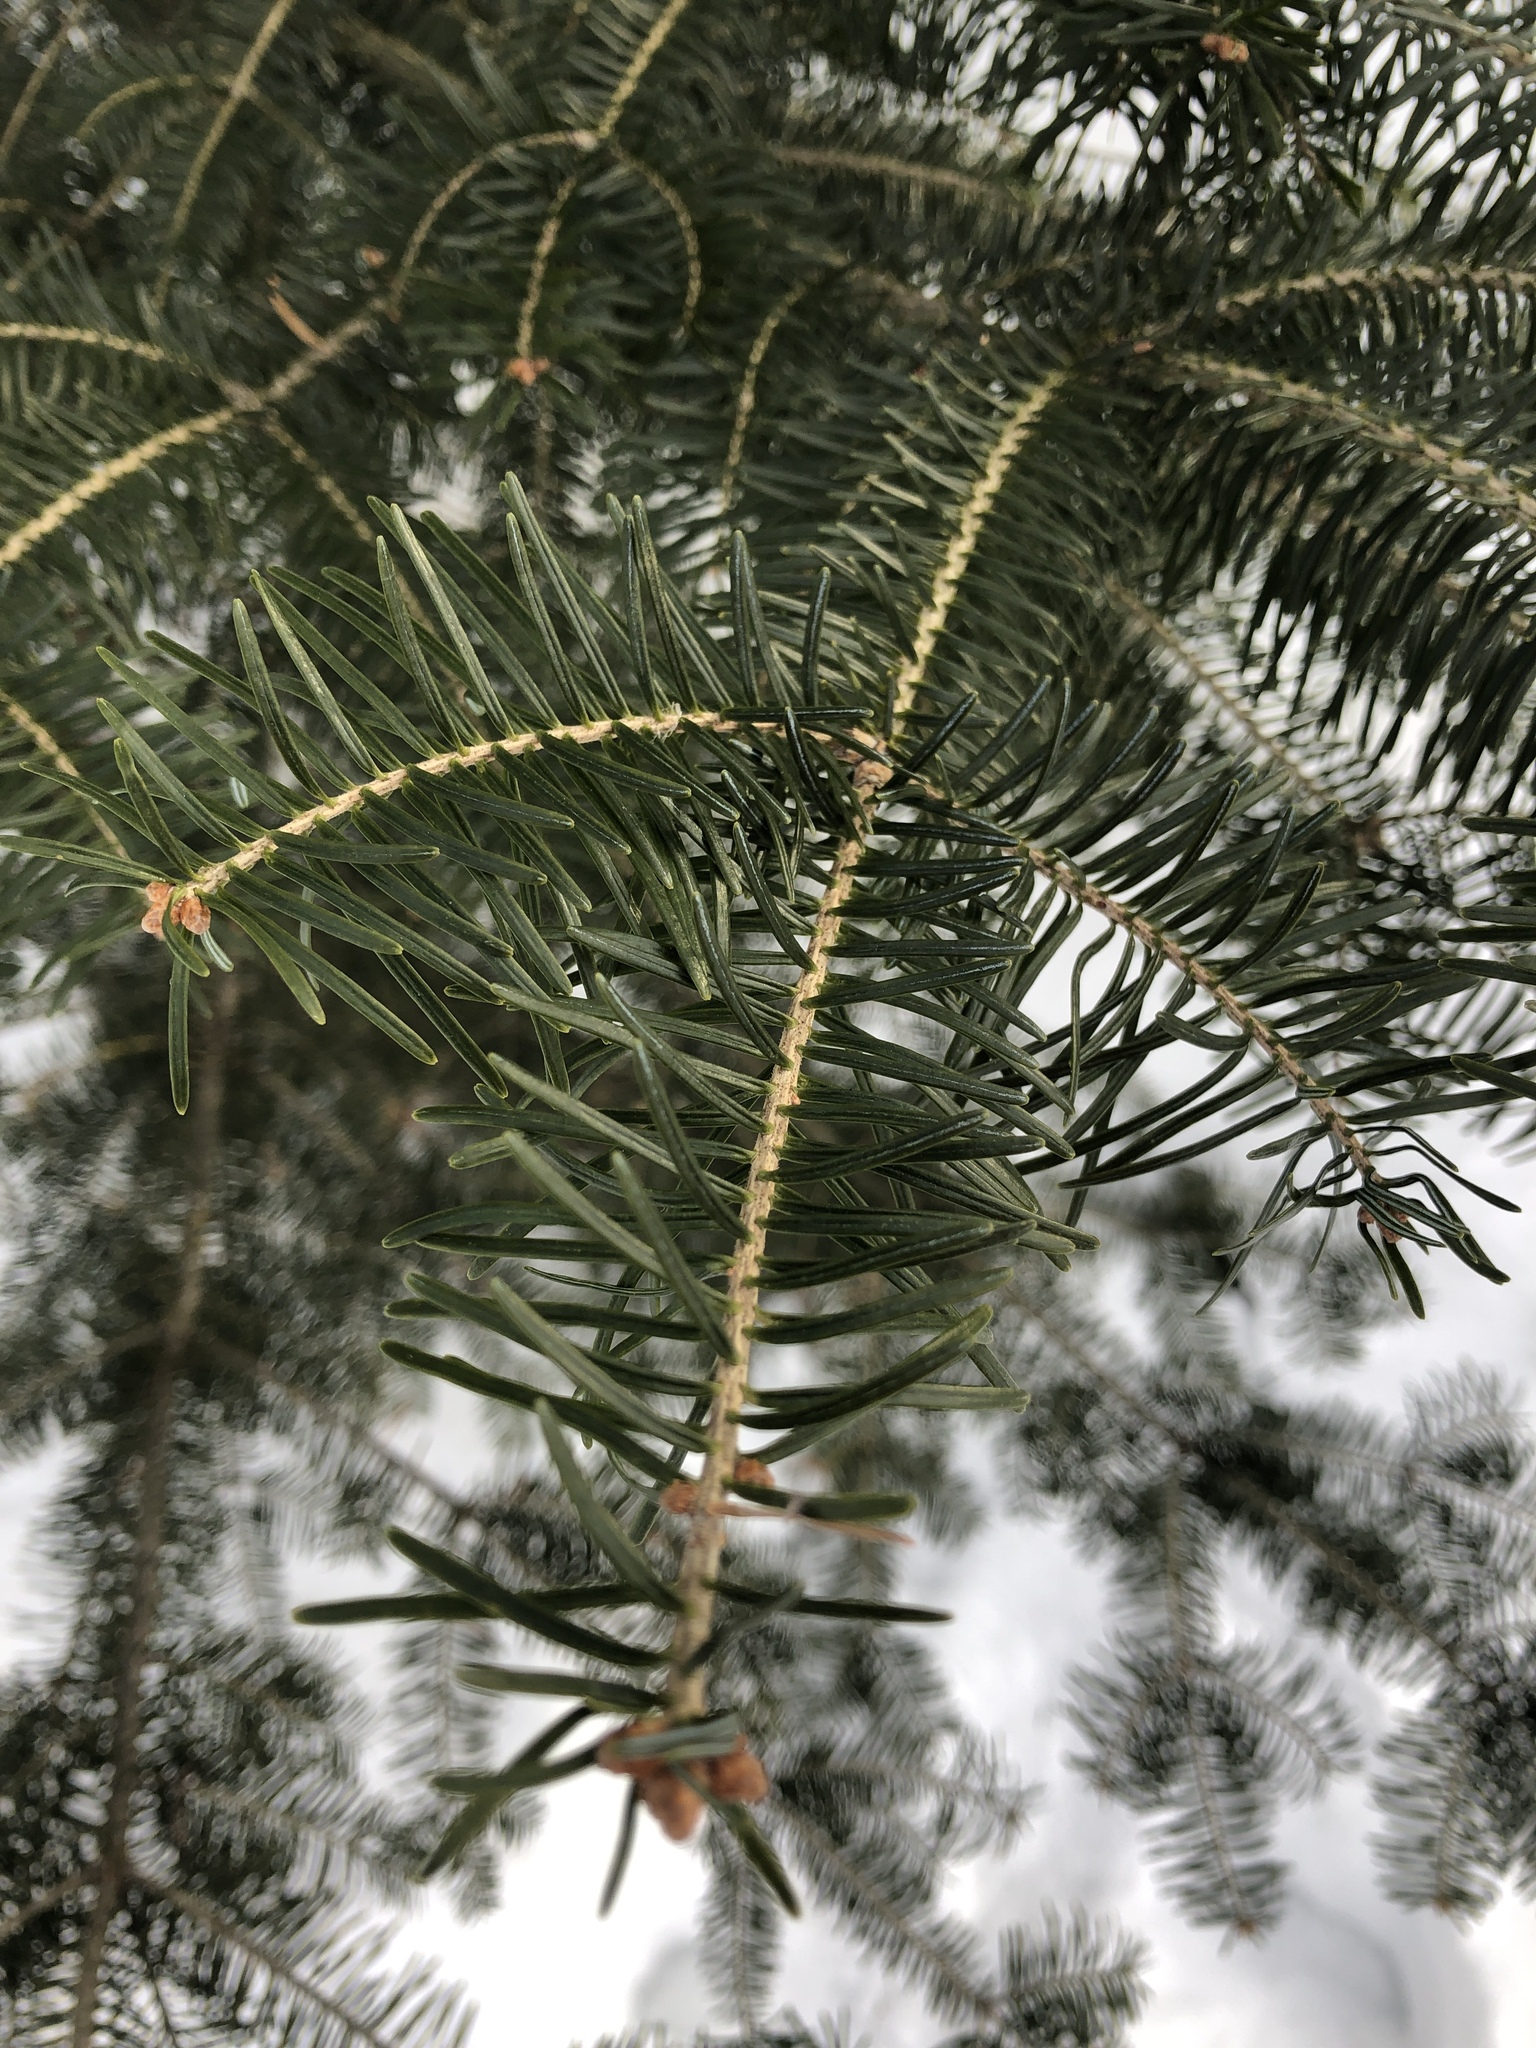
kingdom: Plantae
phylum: Tracheophyta
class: Pinopsida
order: Pinales
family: Pinaceae
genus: Abies
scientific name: Abies balsamea
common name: Balsam fir
